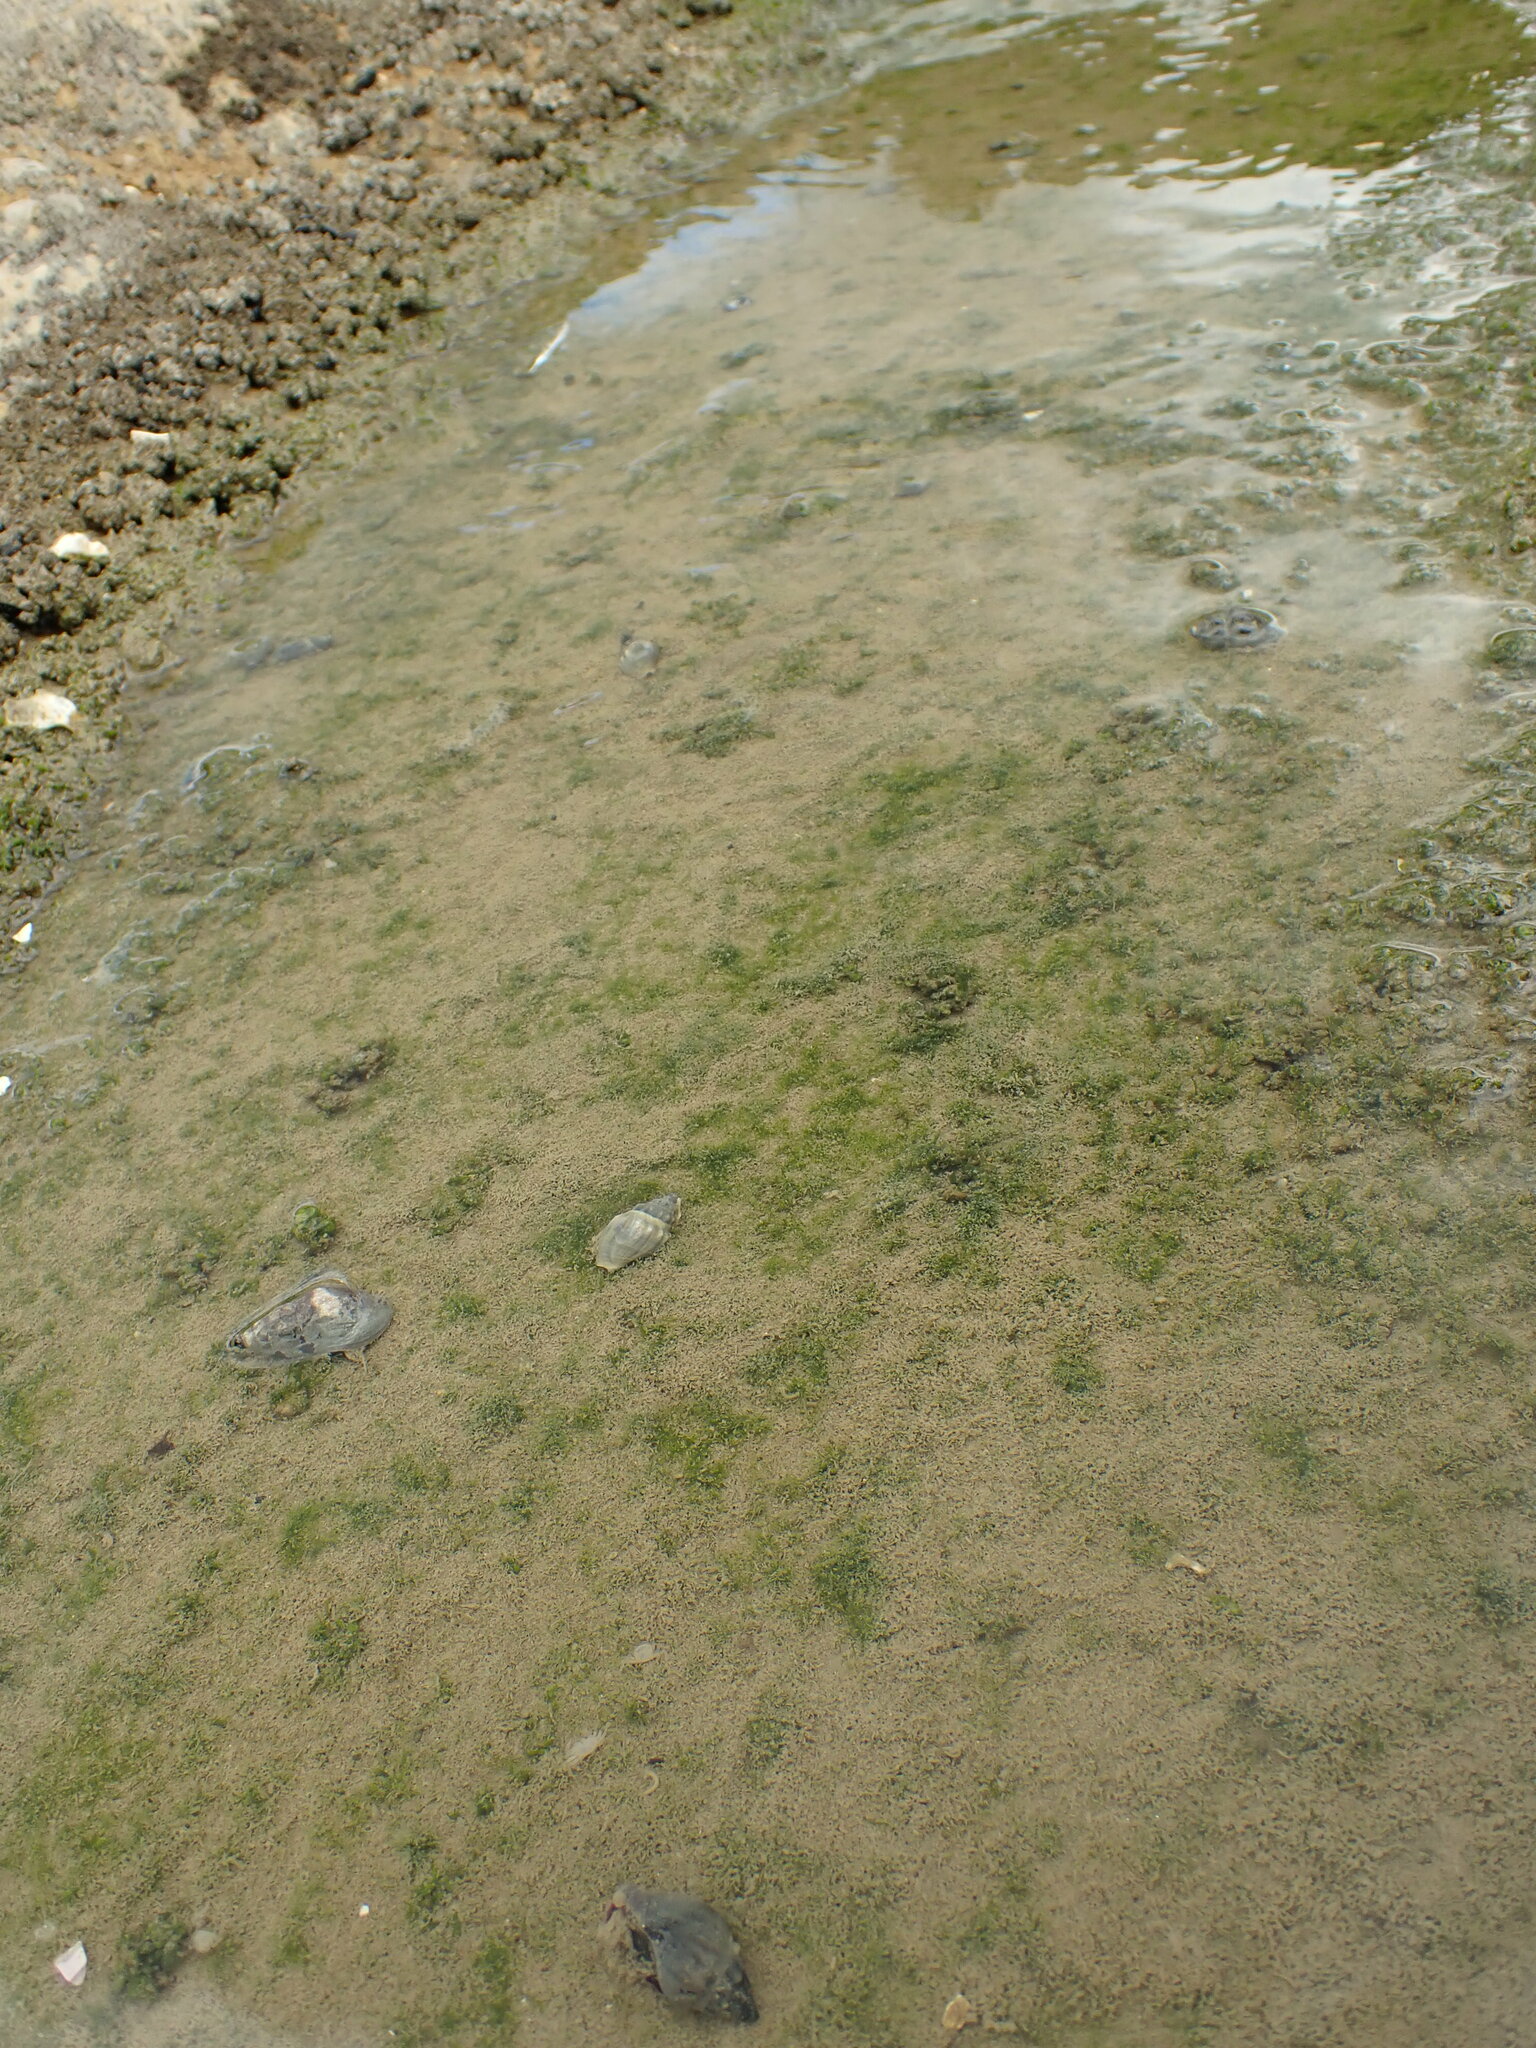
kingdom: Animalia
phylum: Mollusca
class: Gastropoda
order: Neogastropoda
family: Cominellidae
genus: Cominella
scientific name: Cominella glandiformis
